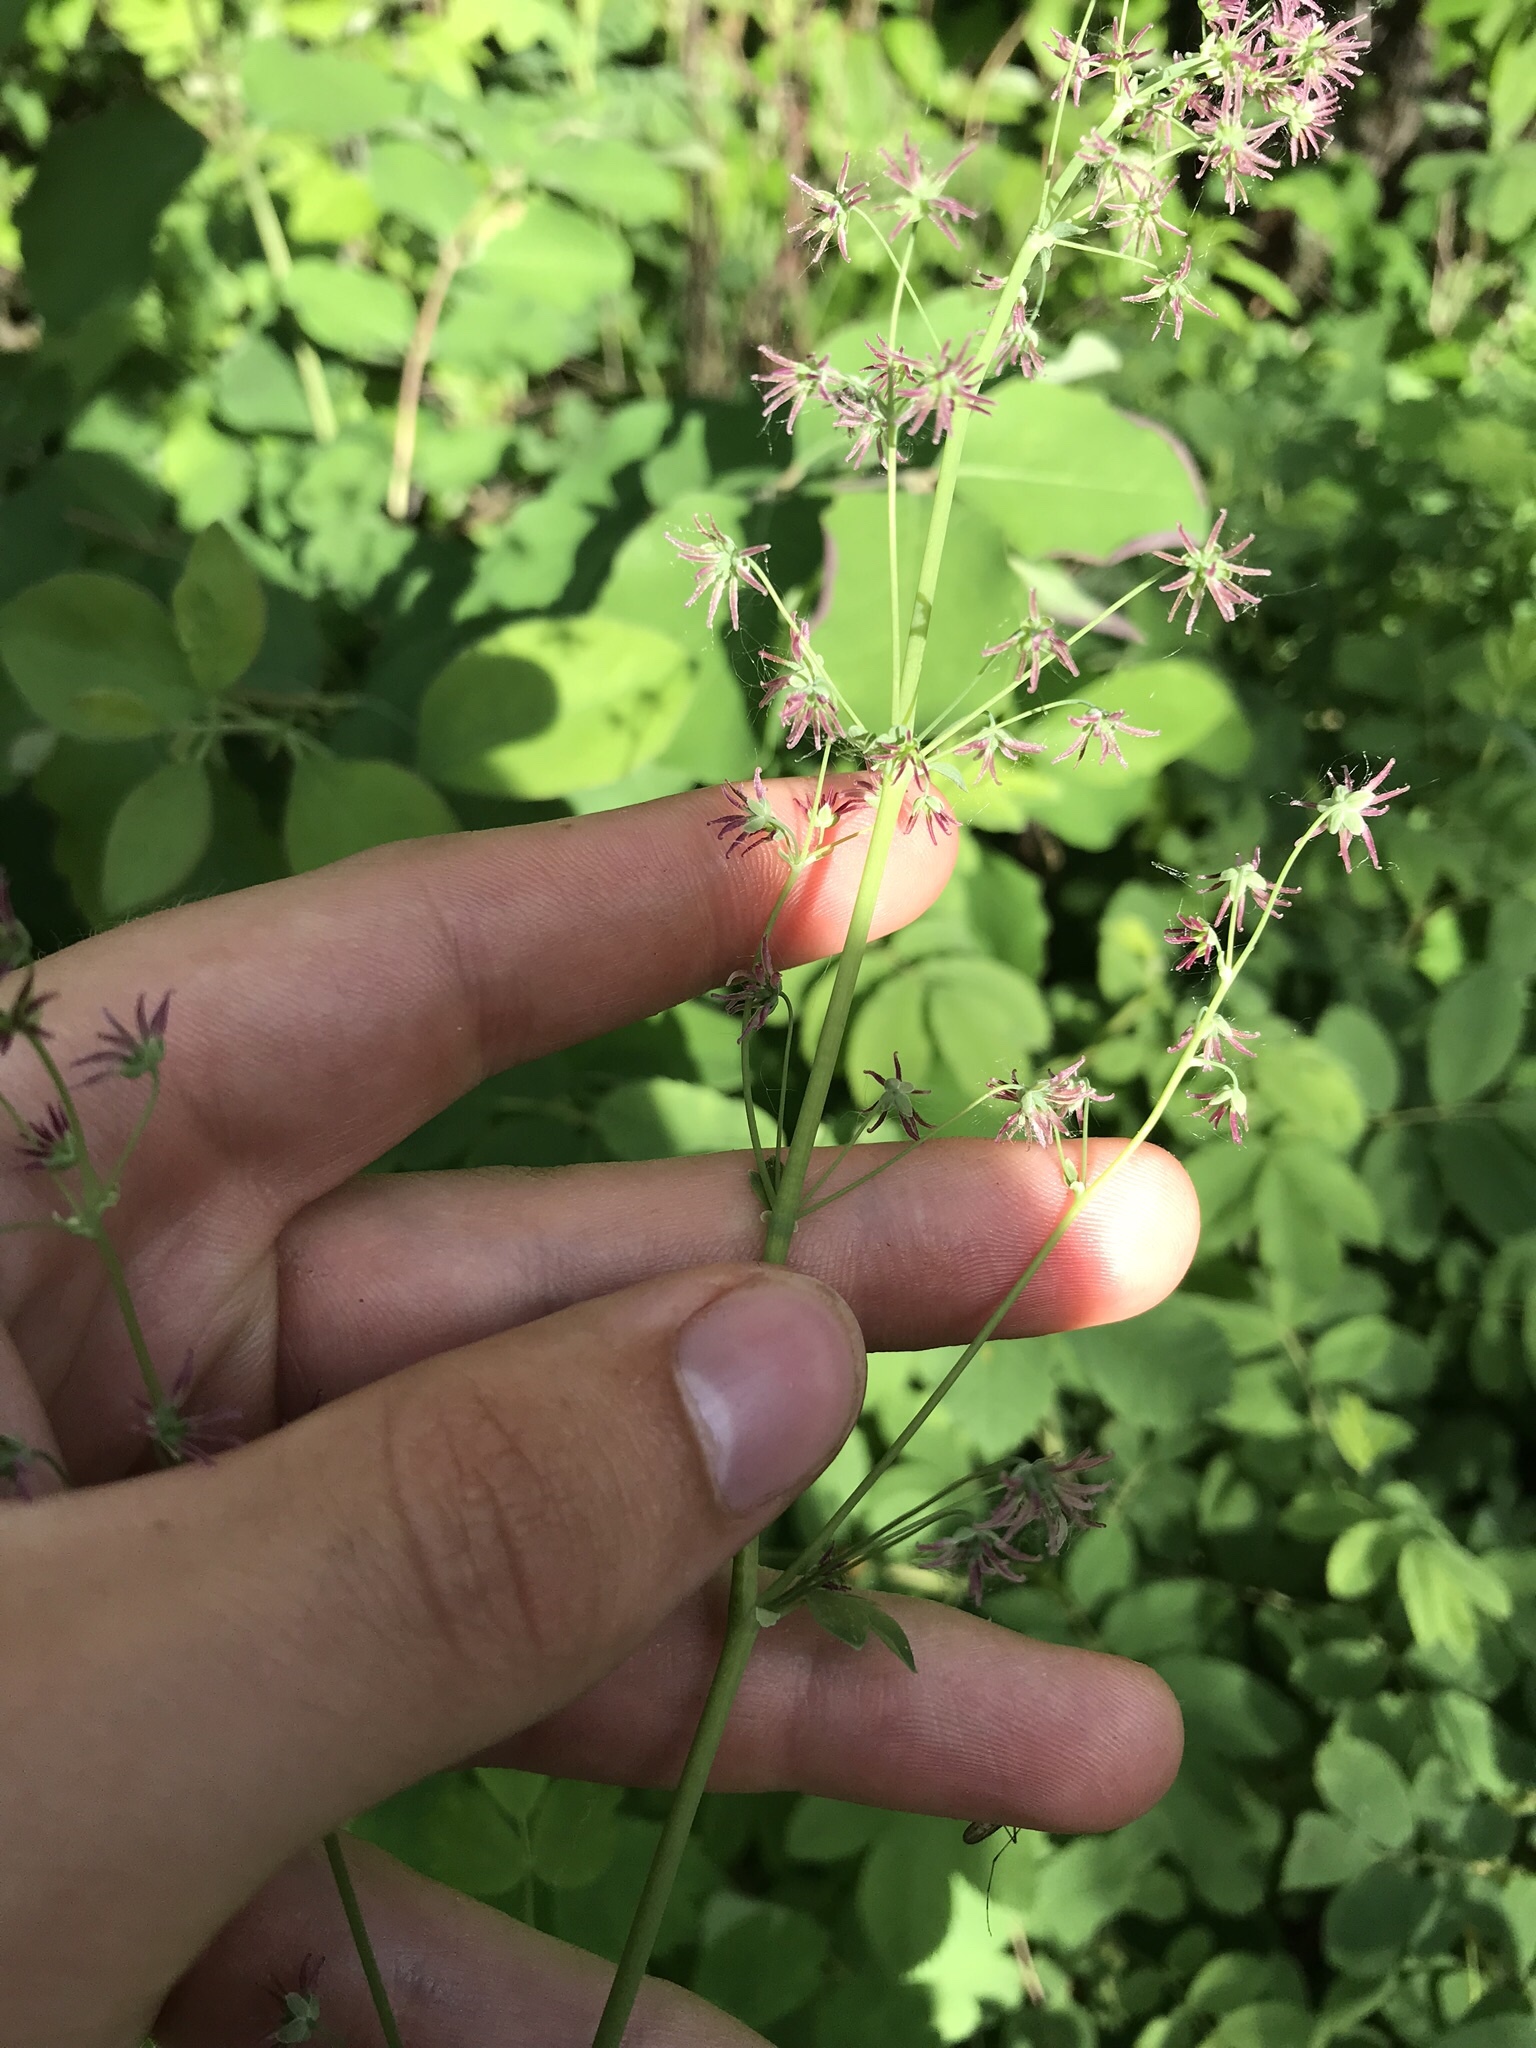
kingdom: Plantae
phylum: Tracheophyta
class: Magnoliopsida
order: Ranunculales
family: Ranunculaceae
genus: Thalictrum
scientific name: Thalictrum venulosum
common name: Early meadow-rue
